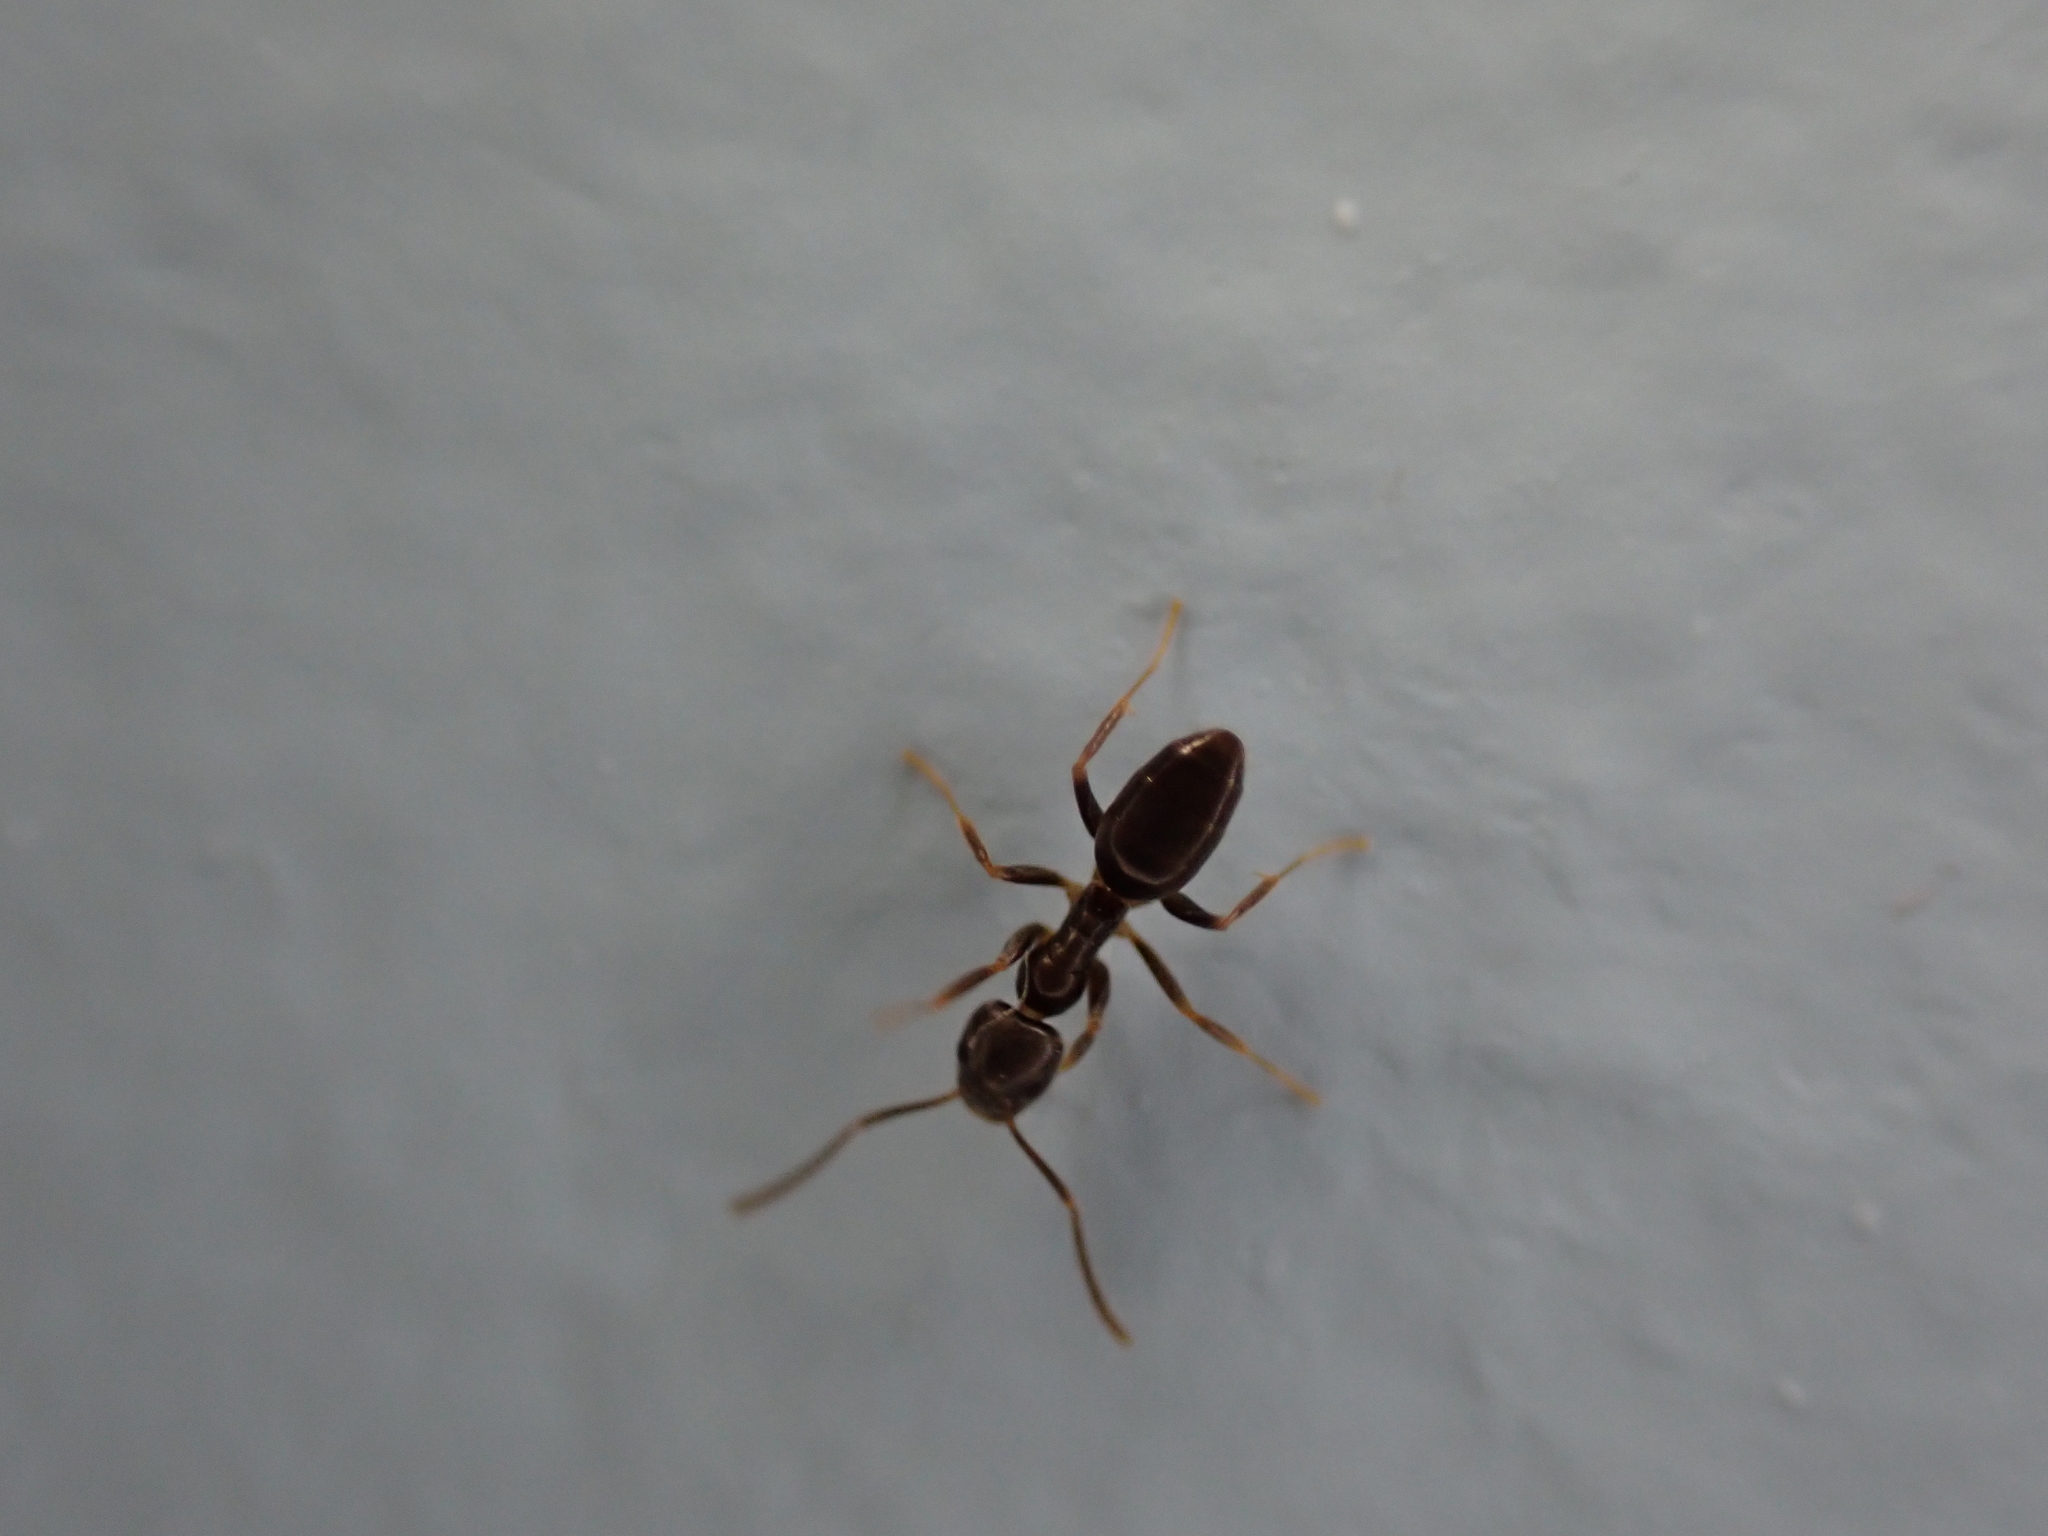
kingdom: Animalia
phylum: Arthropoda
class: Insecta
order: Hymenoptera
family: Formicidae
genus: Tapinoma
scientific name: Tapinoma sessile
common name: Odorous house ant
